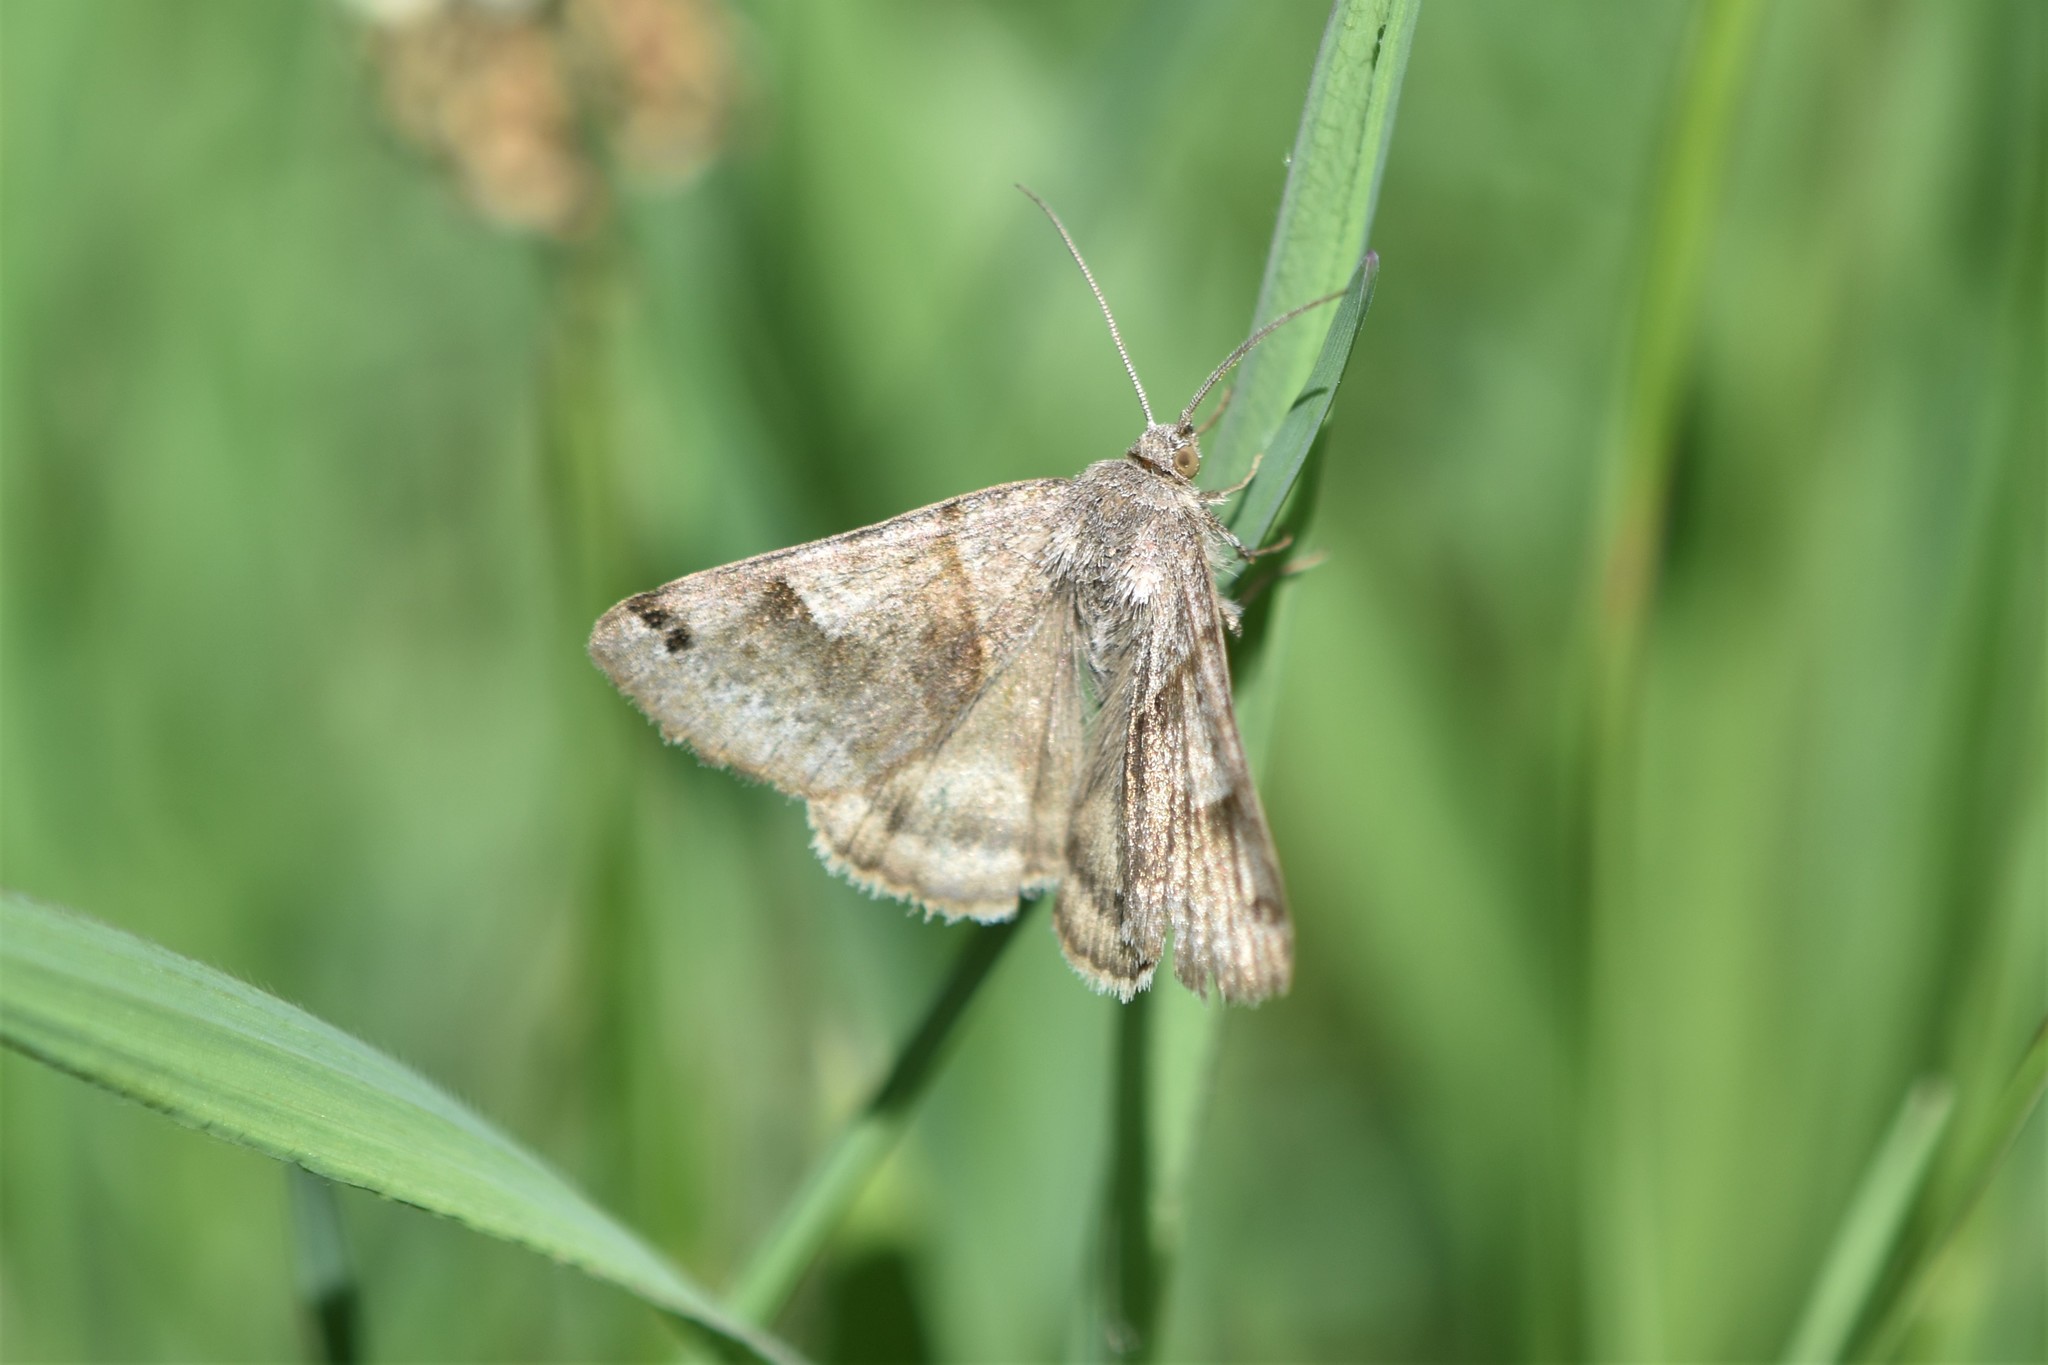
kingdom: Animalia
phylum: Arthropoda
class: Insecta
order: Lepidoptera
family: Erebidae
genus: Caenurgina
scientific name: Caenurgina erechtea
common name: Forage looper moth
